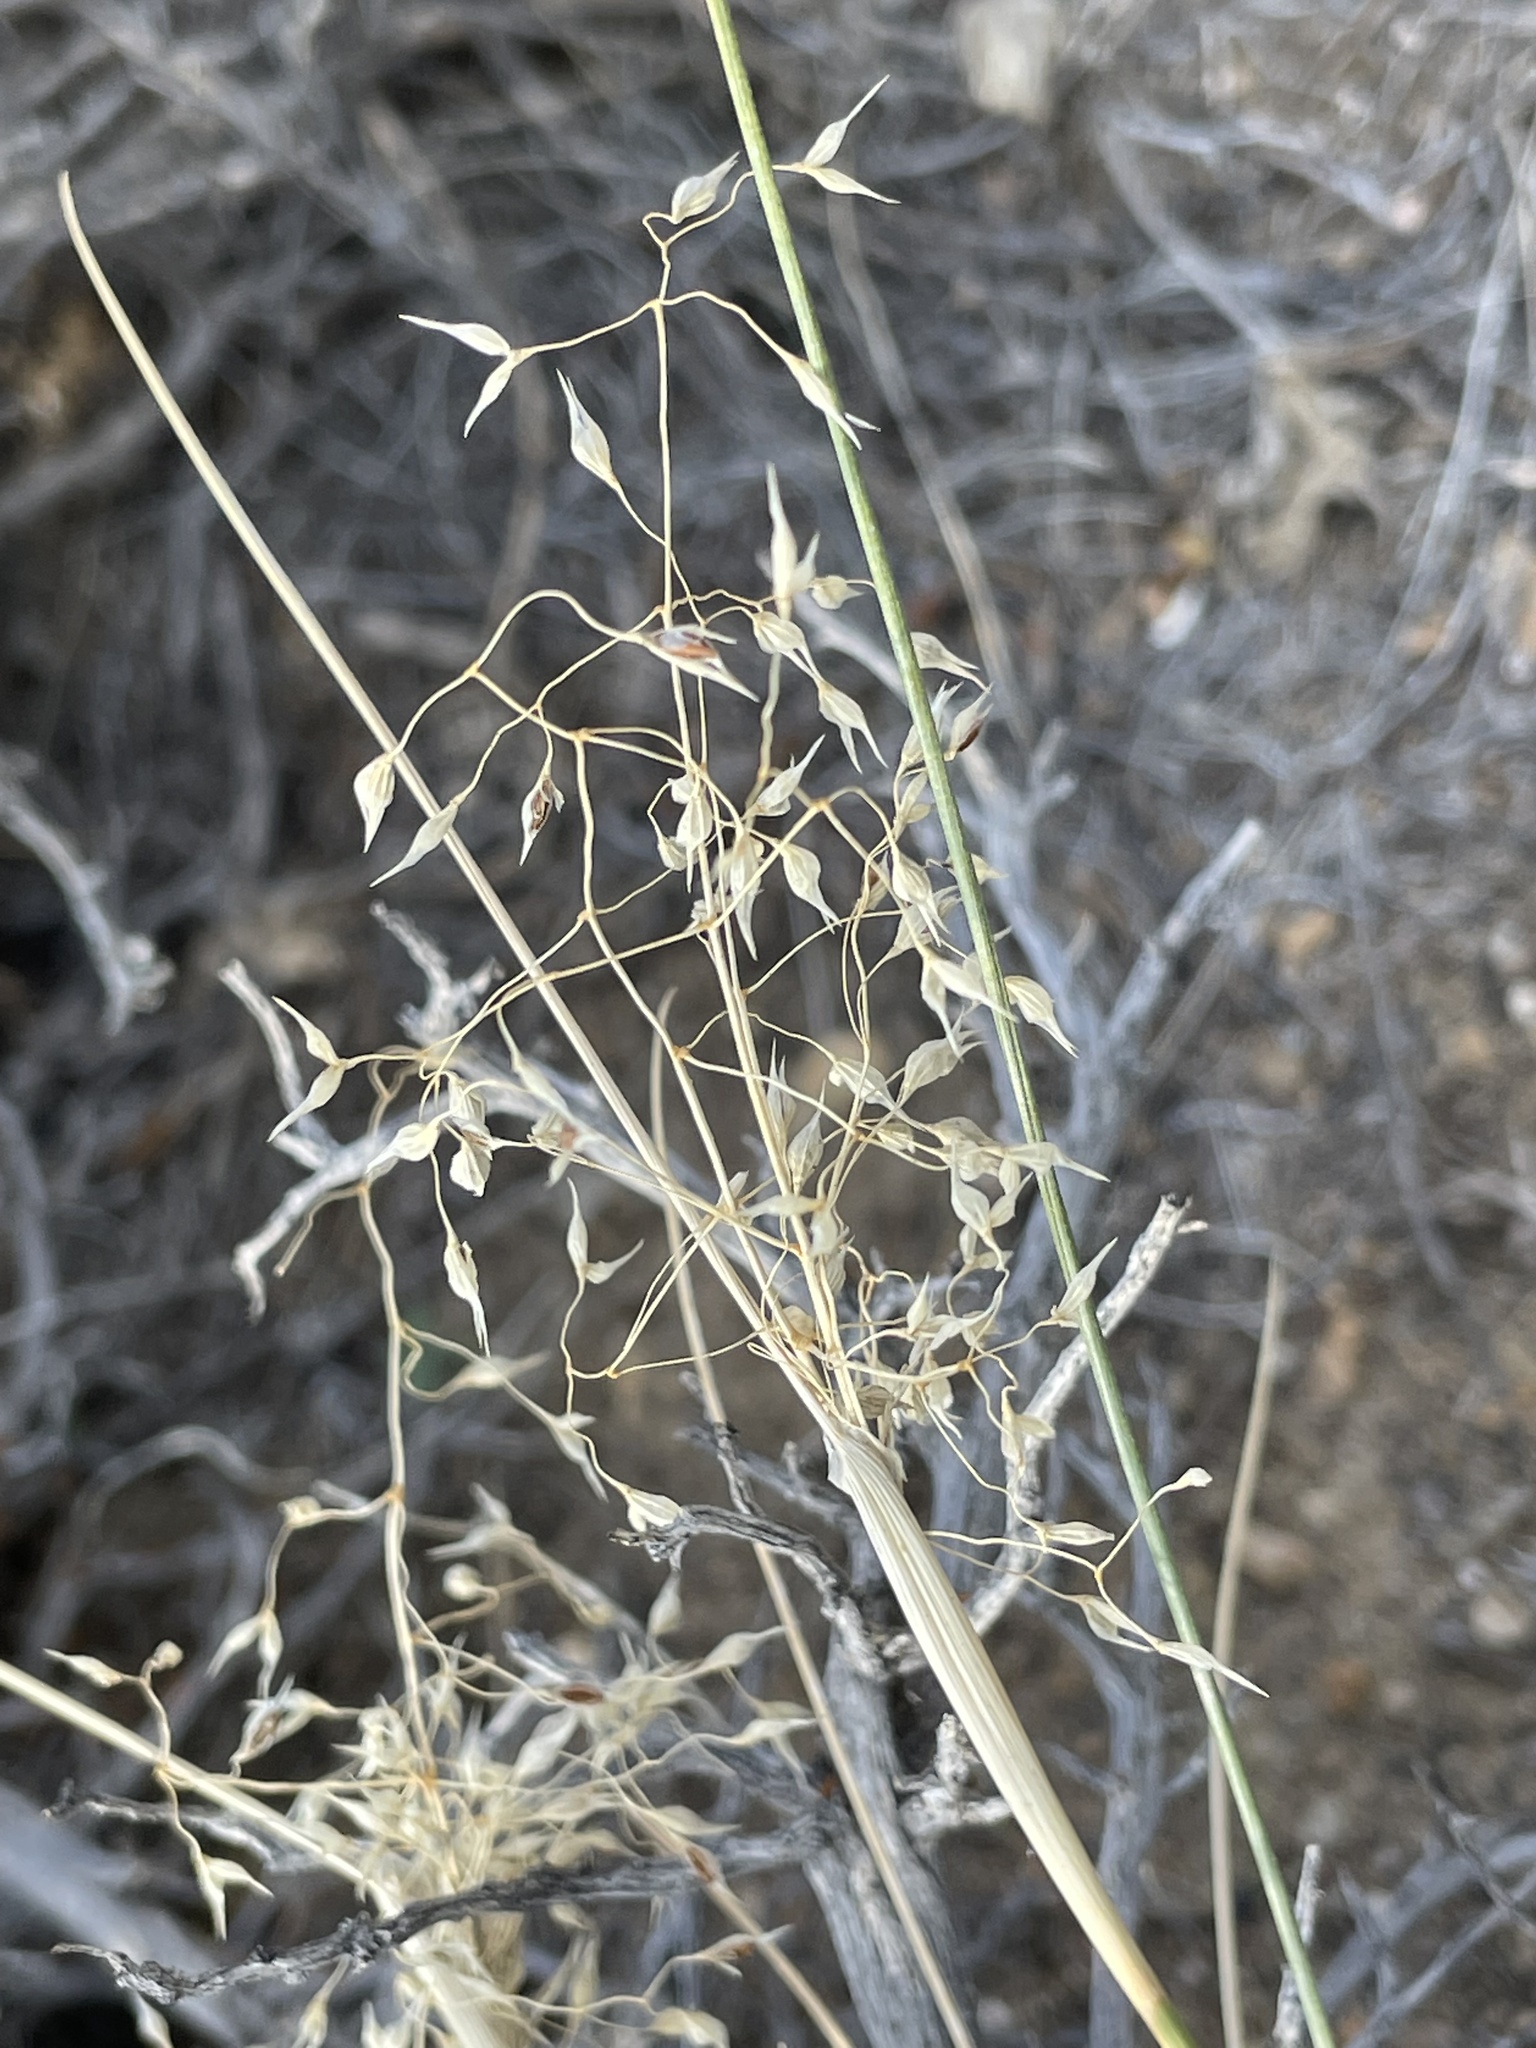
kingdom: Plantae
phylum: Tracheophyta
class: Liliopsida
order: Poales
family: Poaceae
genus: Eriocoma
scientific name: Eriocoma hymenoides
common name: Indian mountain ricegrass
